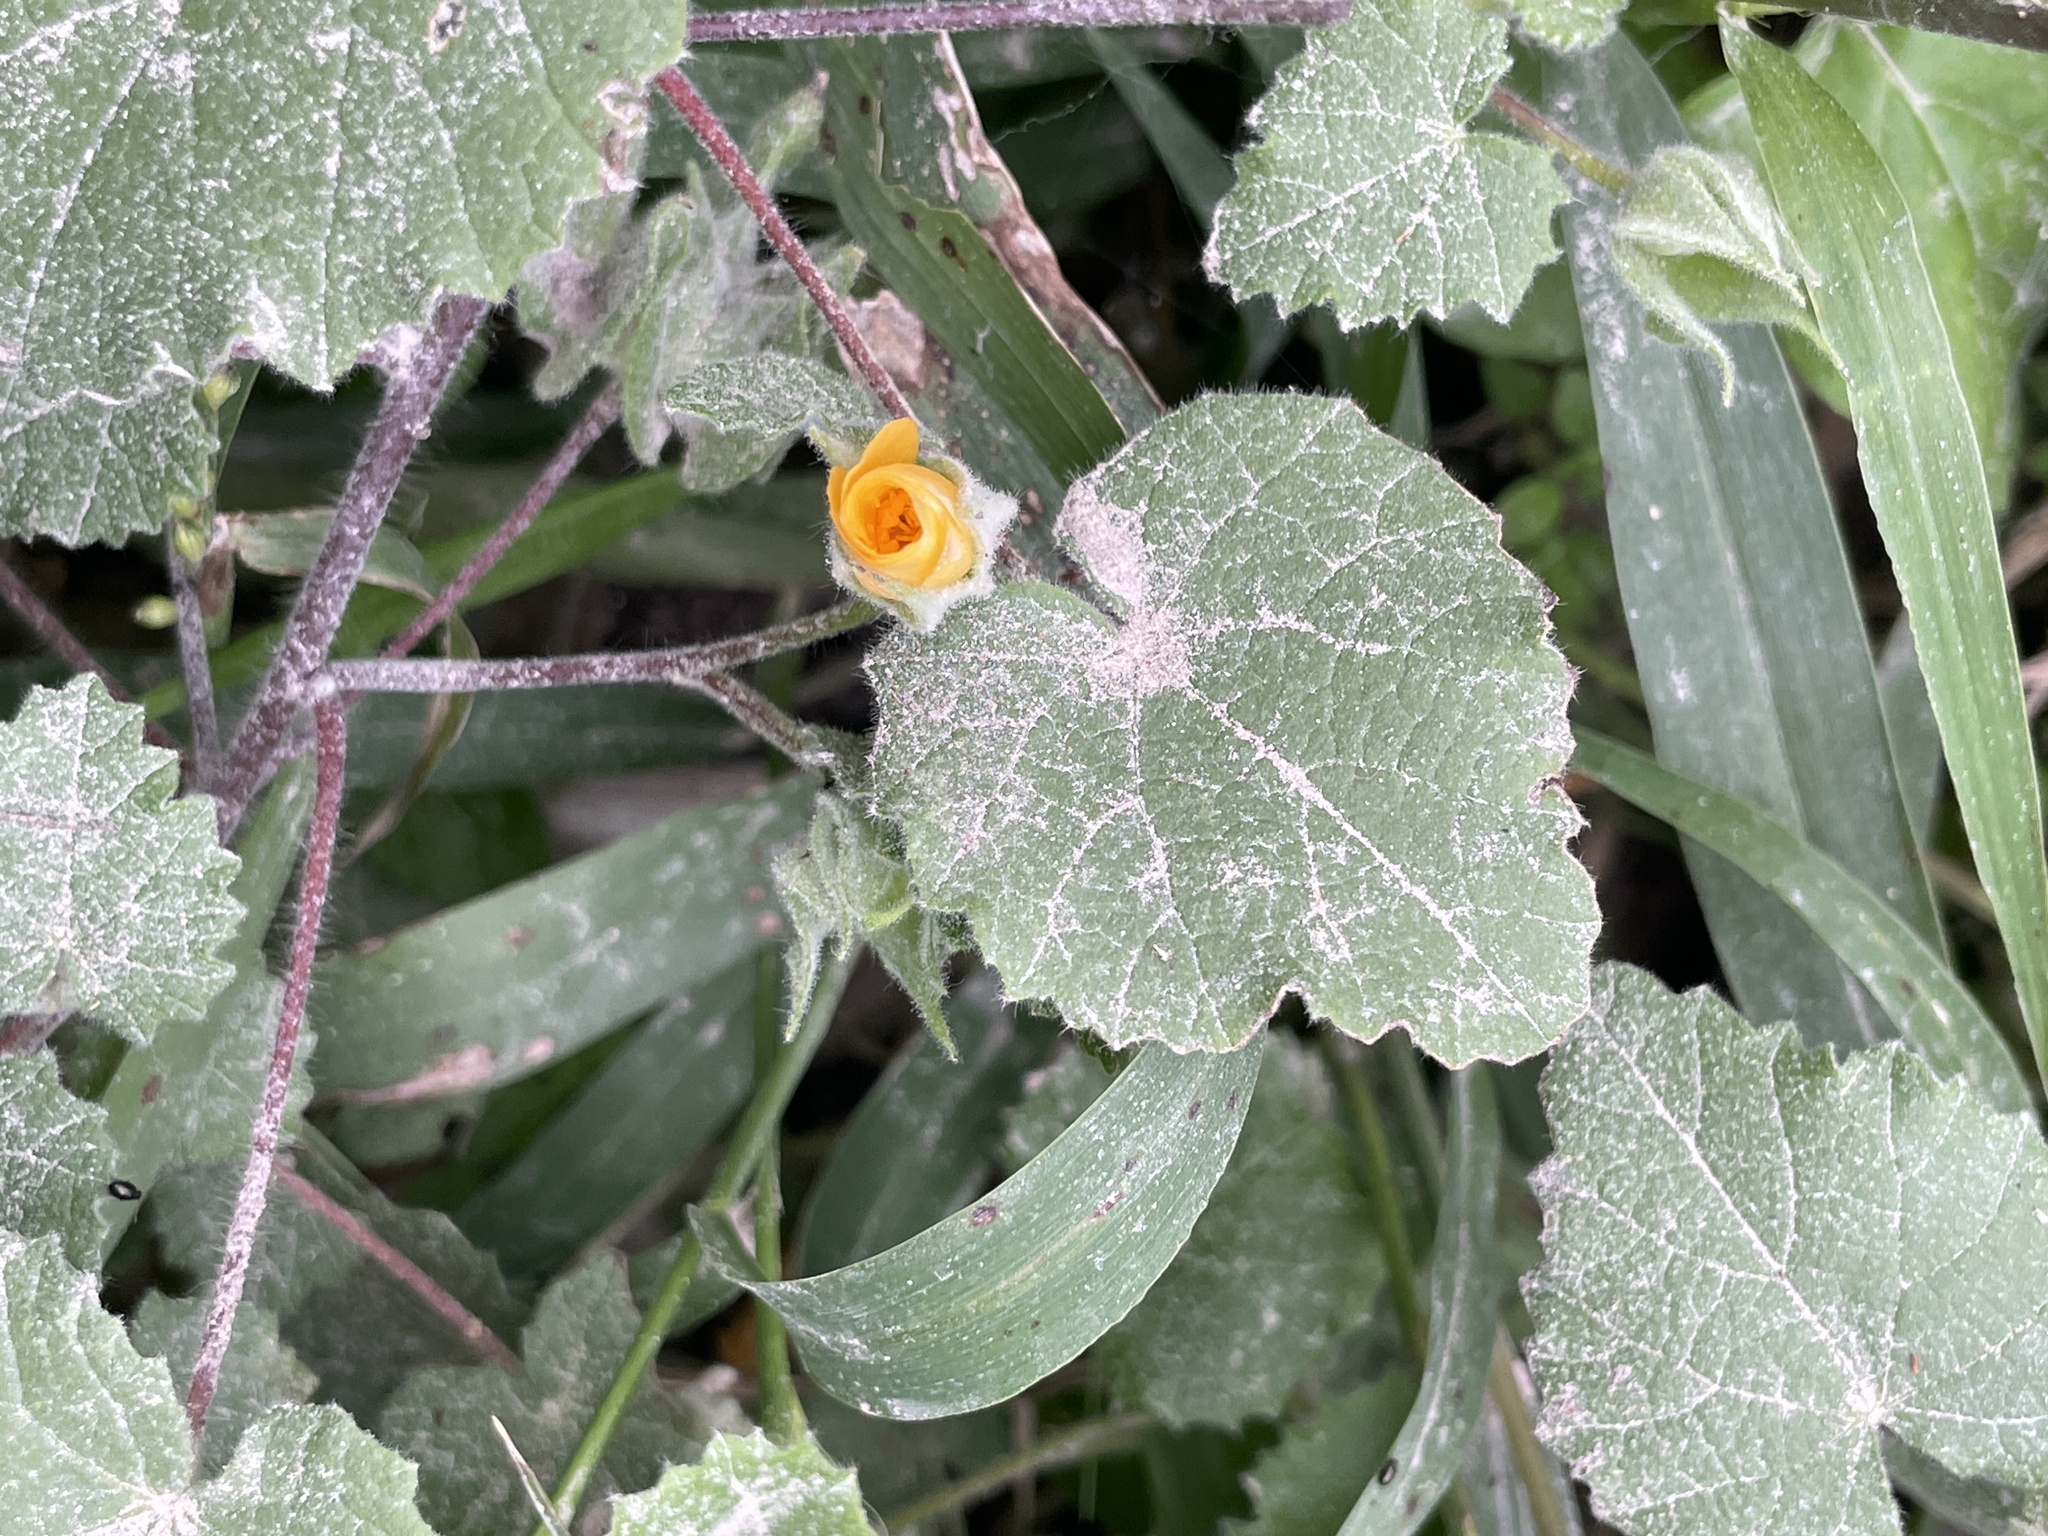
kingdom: Plantae
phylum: Tracheophyta
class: Magnoliopsida
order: Malvales
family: Malvaceae
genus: Abutilon
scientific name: Abutilon wrightii
